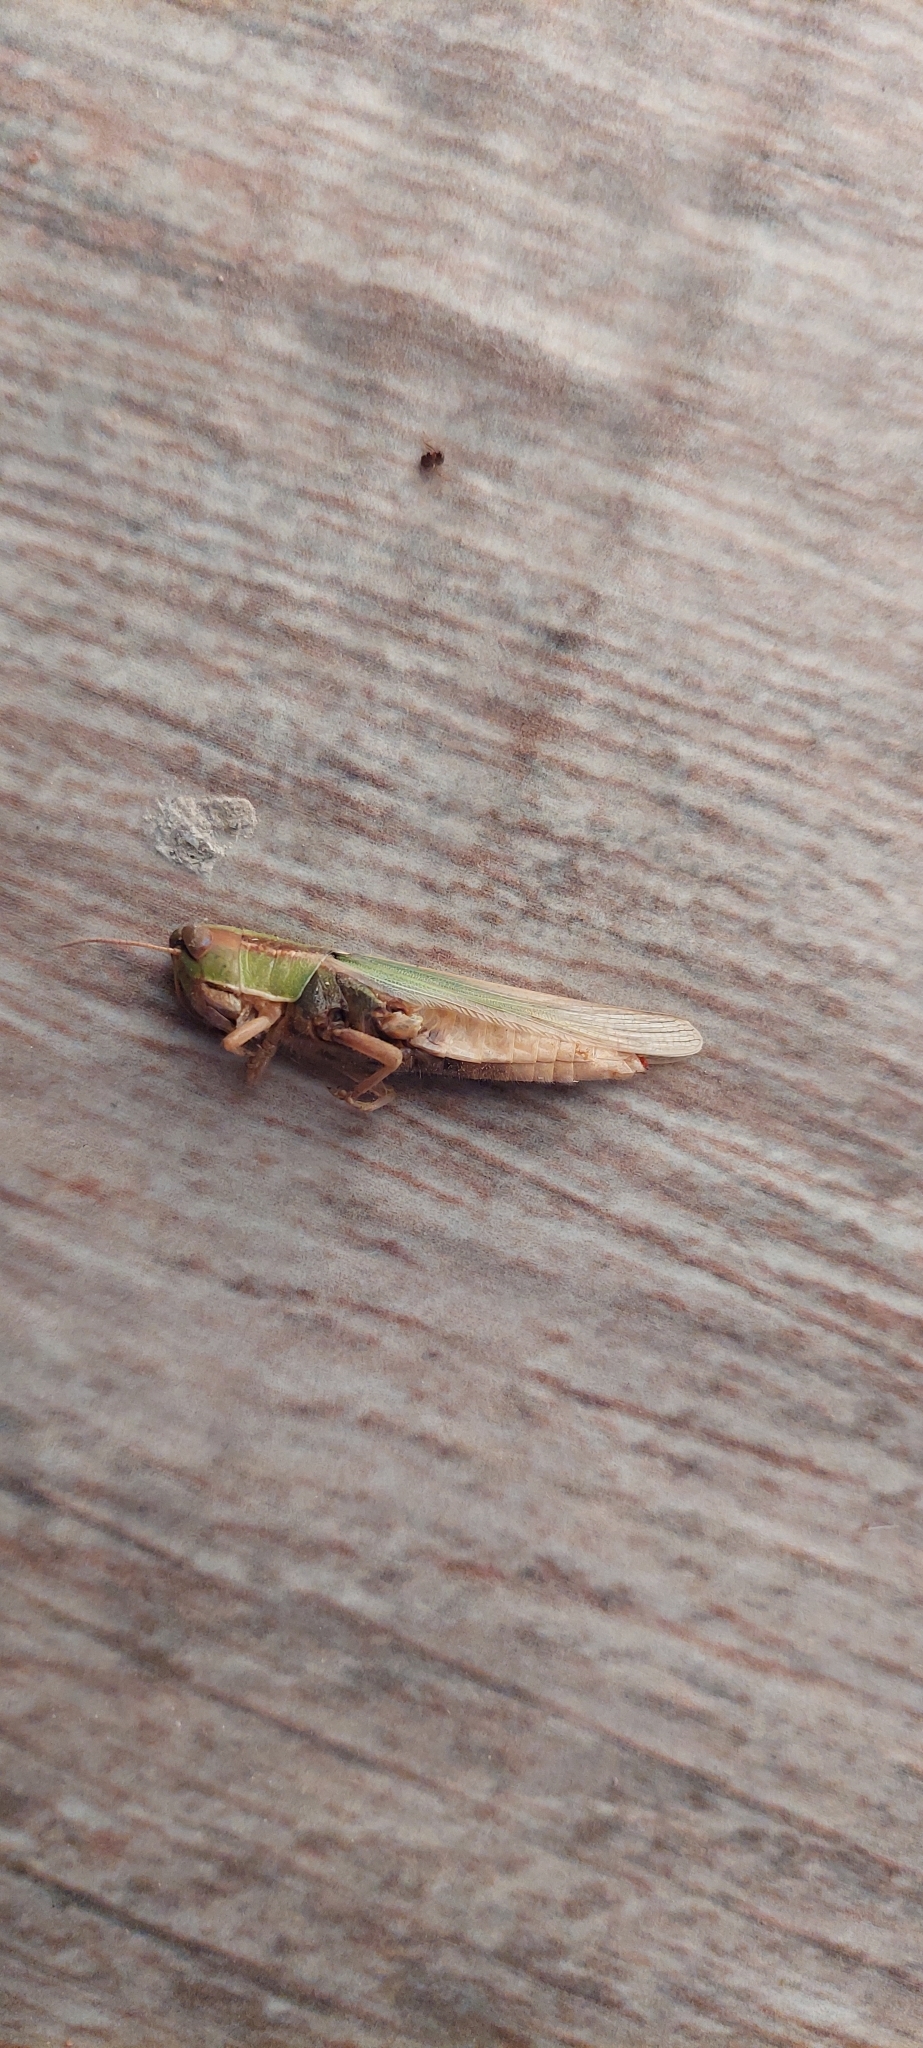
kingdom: Animalia
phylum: Arthropoda
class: Insecta
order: Orthoptera
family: Acrididae
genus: Aleuas
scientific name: Aleuas lineatus
